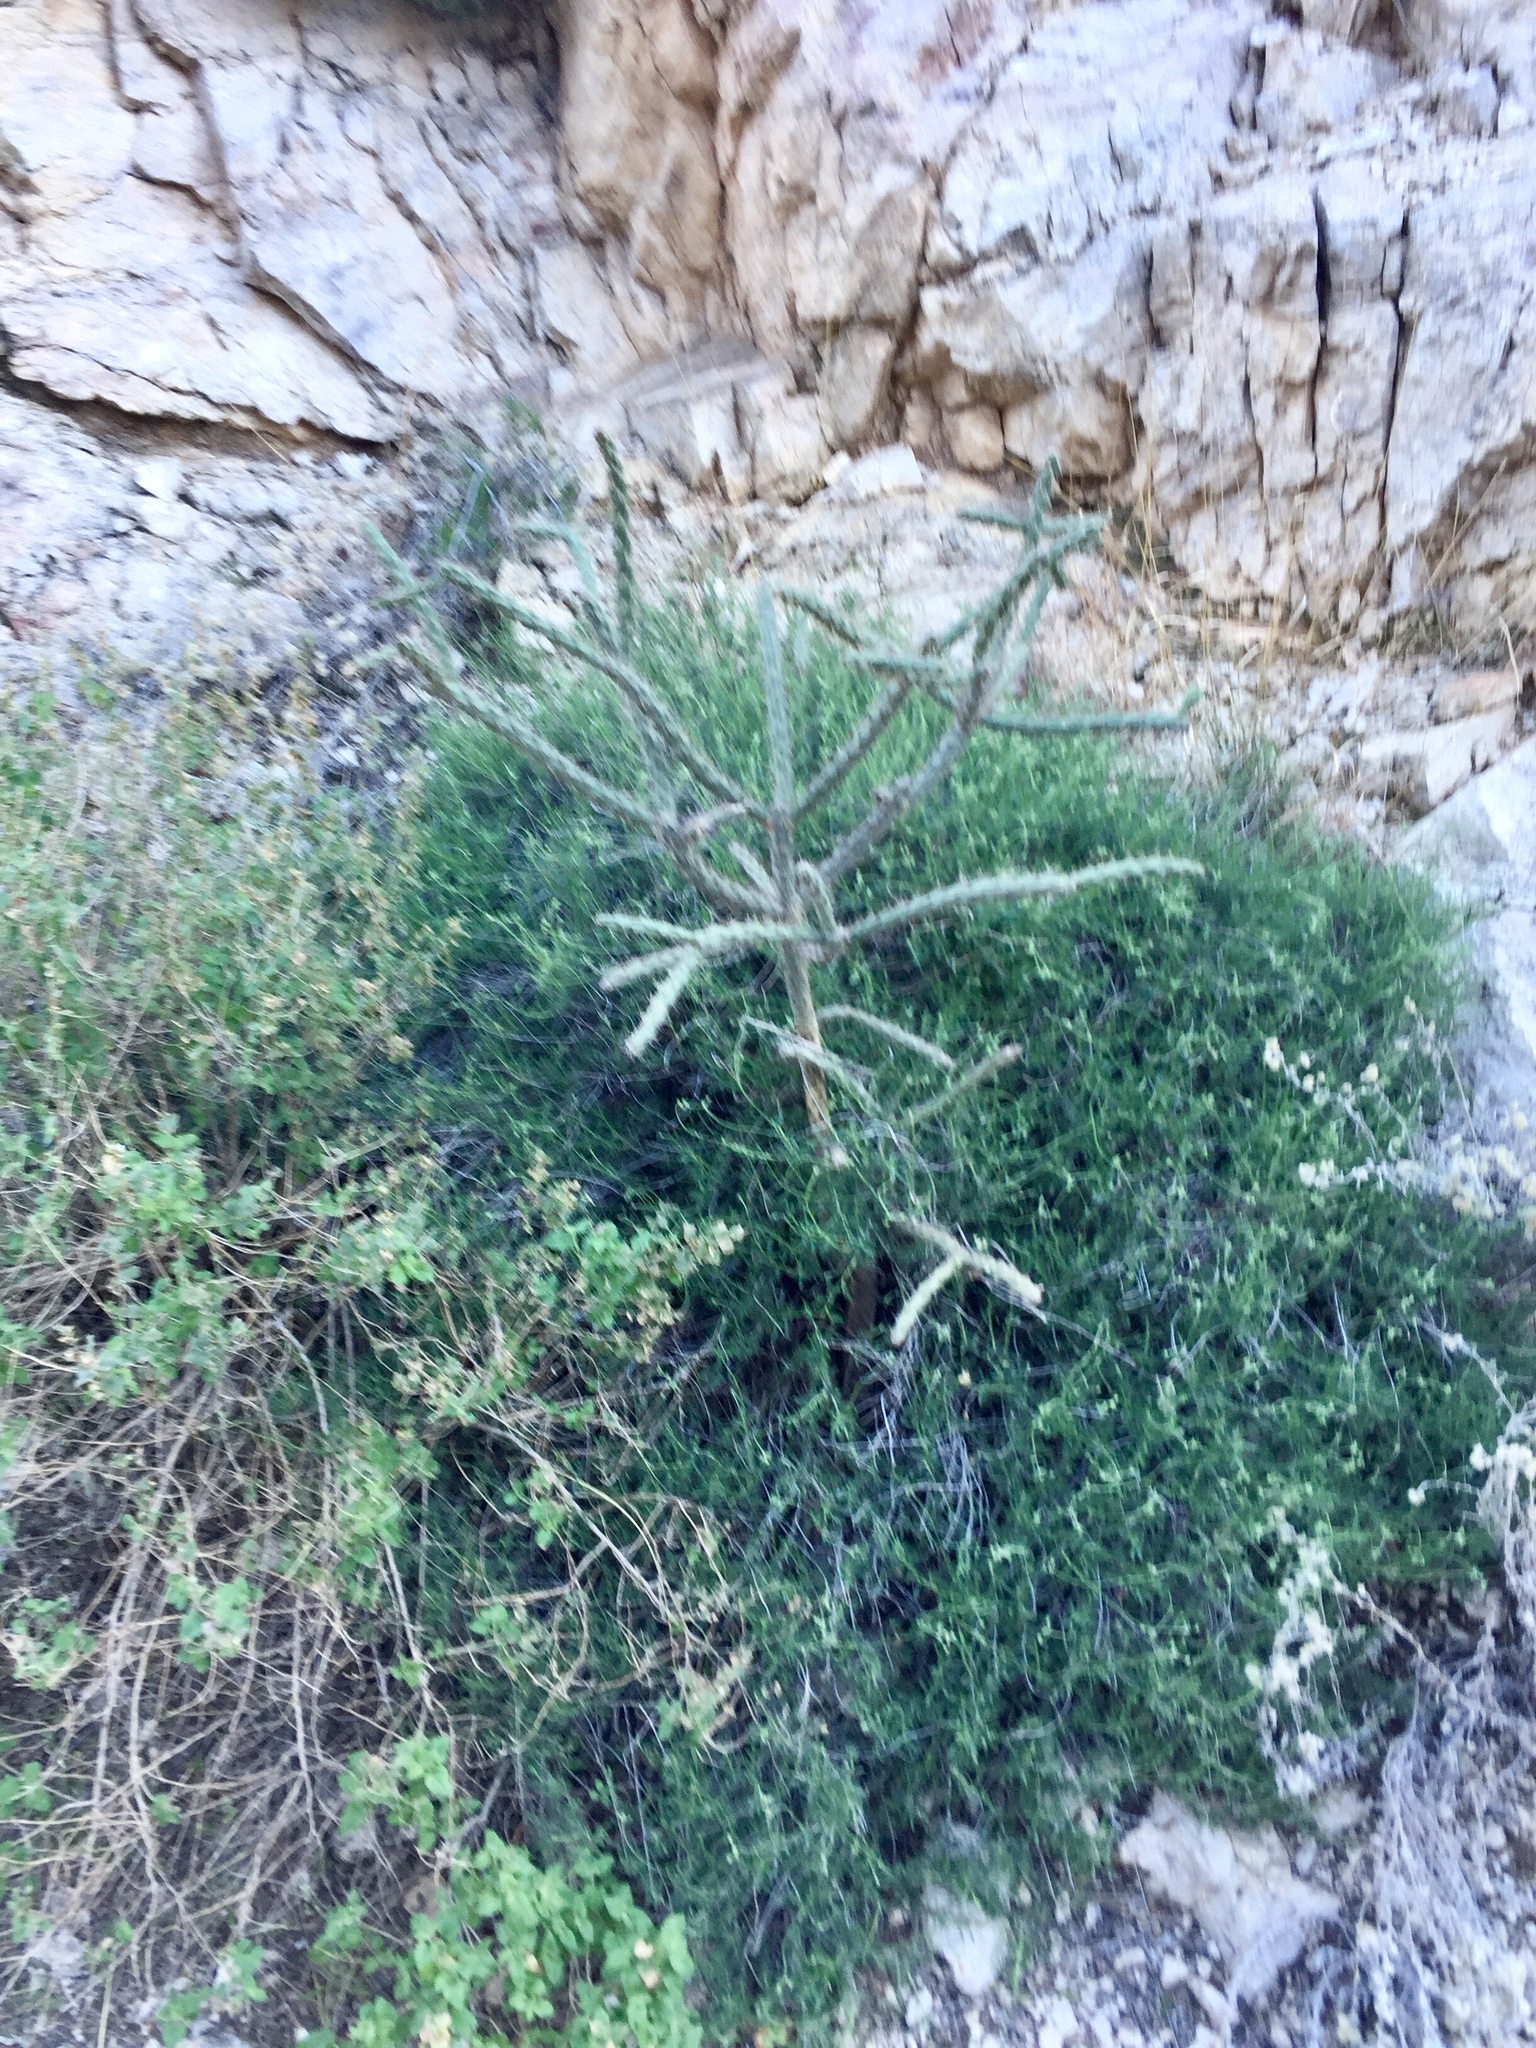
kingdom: Plantae
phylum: Tracheophyta
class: Magnoliopsida
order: Caryophyllales
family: Cactaceae
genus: Cylindropuntia
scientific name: Cylindropuntia thurberi
